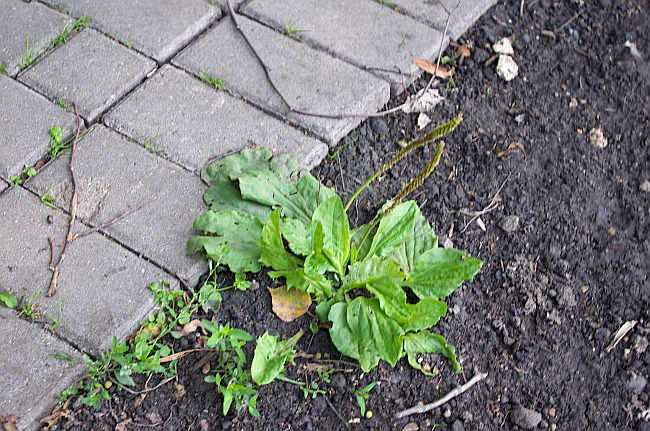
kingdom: Plantae
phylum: Tracheophyta
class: Magnoliopsida
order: Lamiales
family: Plantaginaceae
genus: Plantago
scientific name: Plantago major
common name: Common plantain
